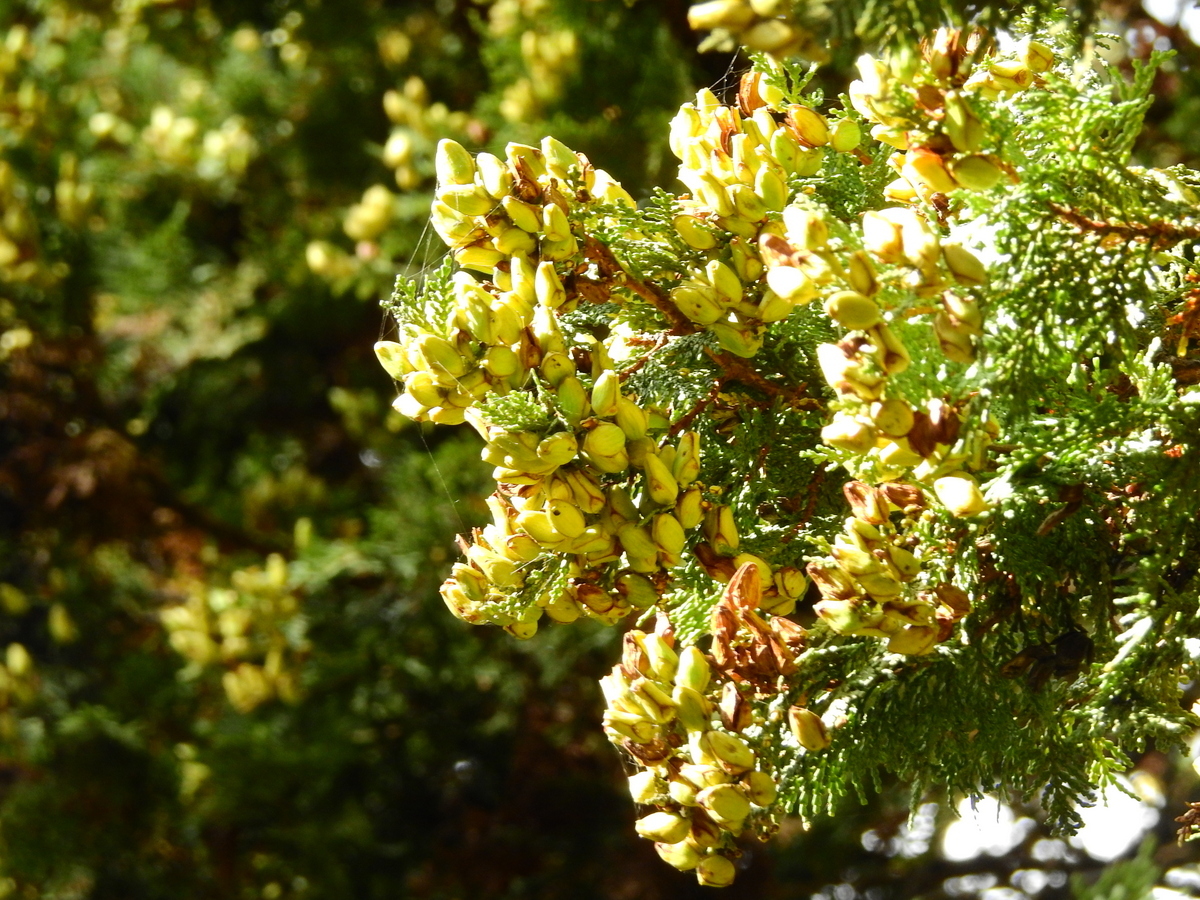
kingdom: Plantae
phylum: Tracheophyta
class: Pinopsida
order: Pinales
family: Cupressaceae
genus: Austrocedrus
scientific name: Austrocedrus chilensis
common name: Chilean incense-cedar
